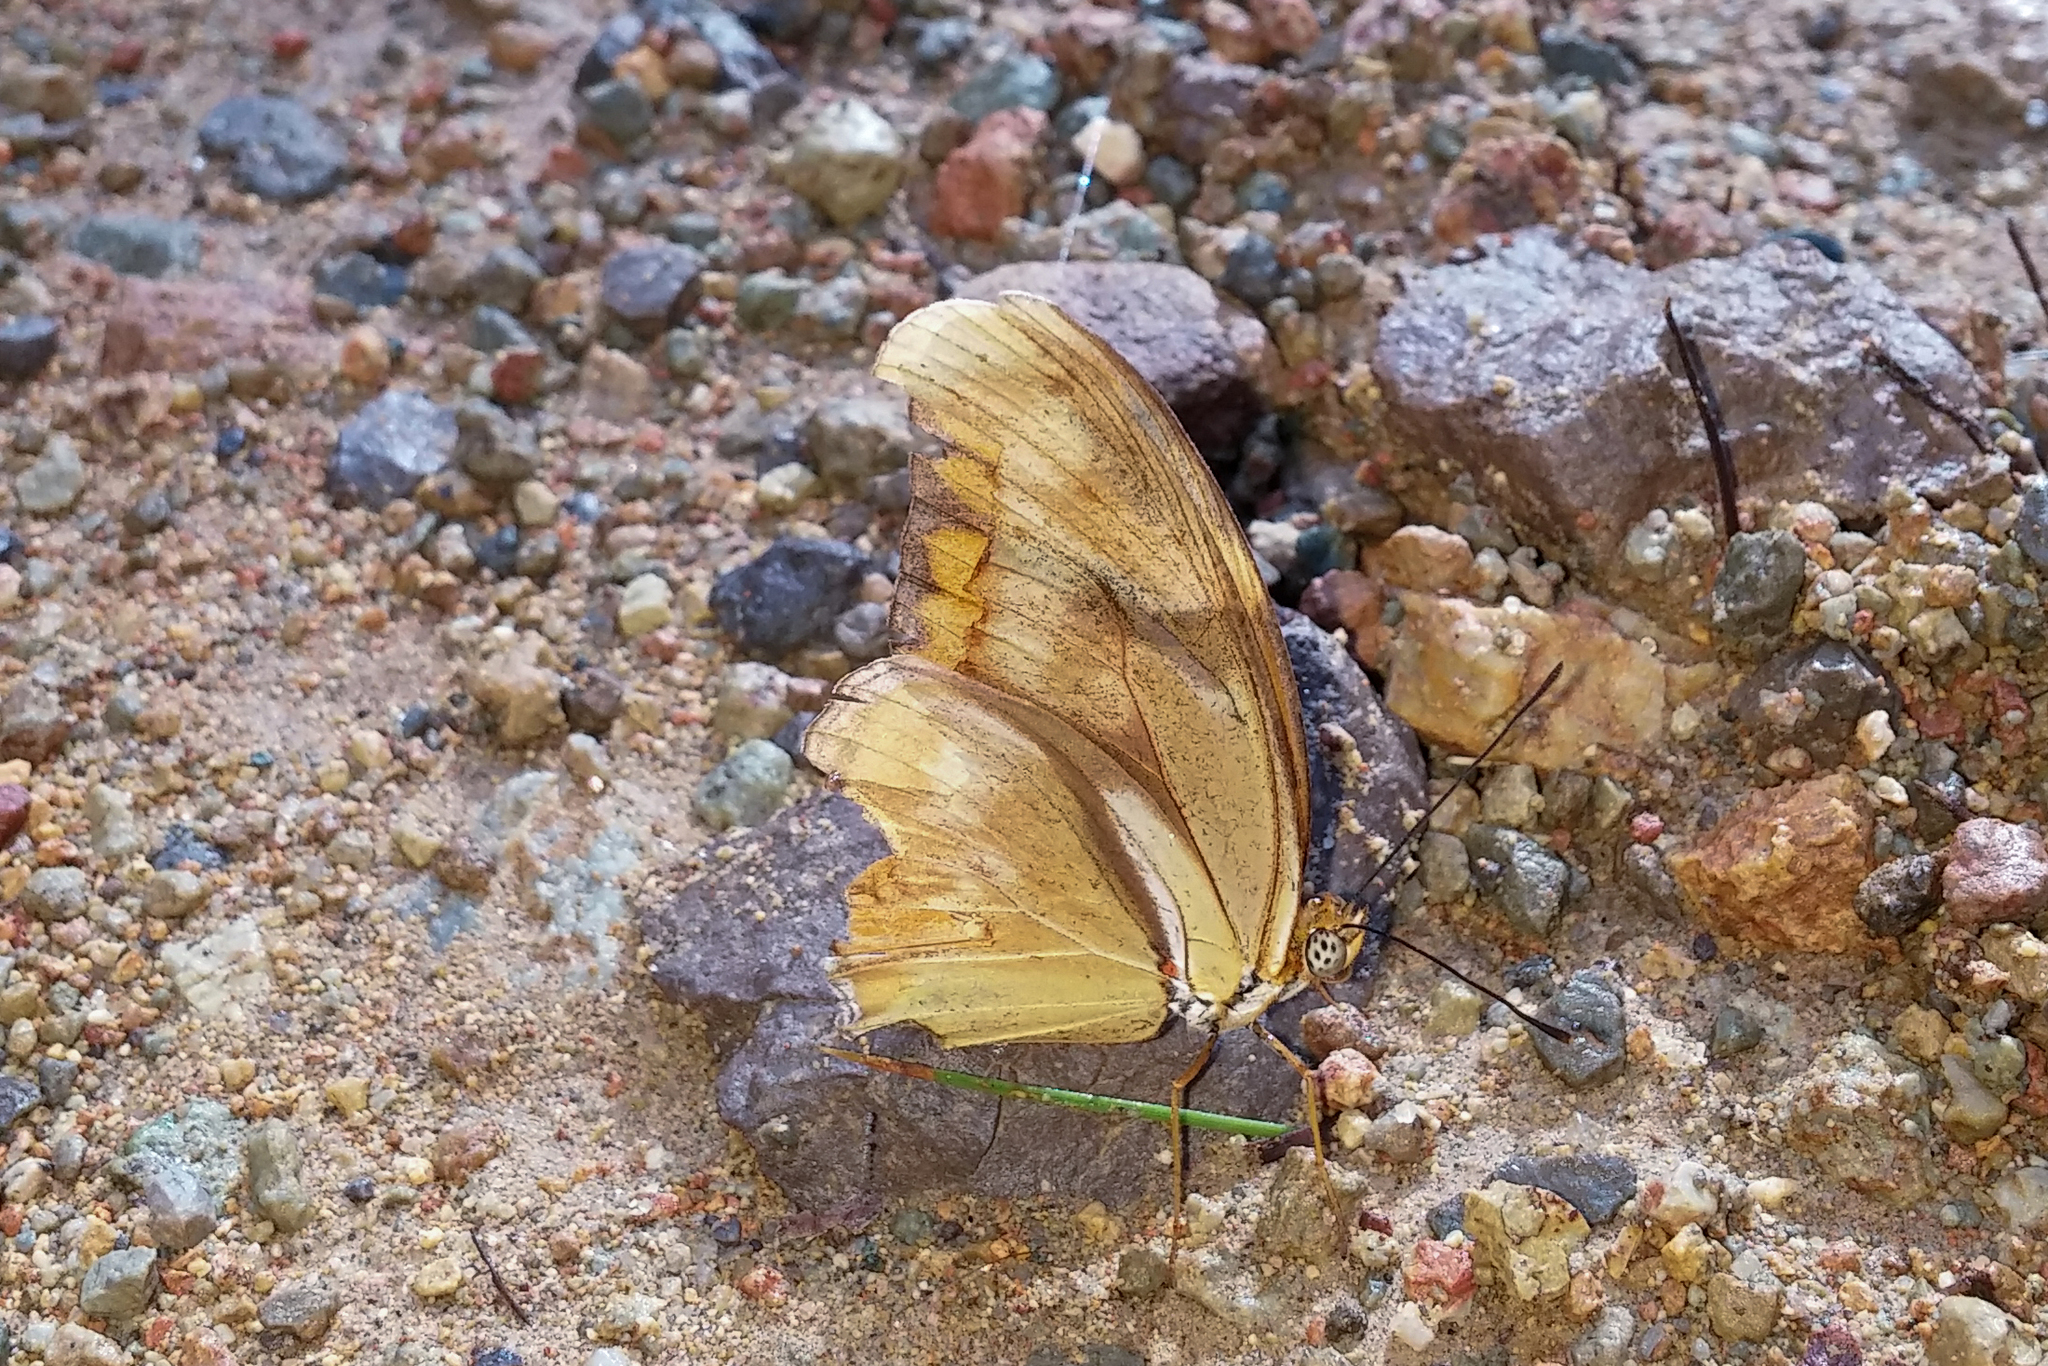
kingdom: Animalia
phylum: Arthropoda
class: Insecta
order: Lepidoptera
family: Nymphalidae
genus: Dryas
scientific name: Dryas iulia
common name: Flambeau
